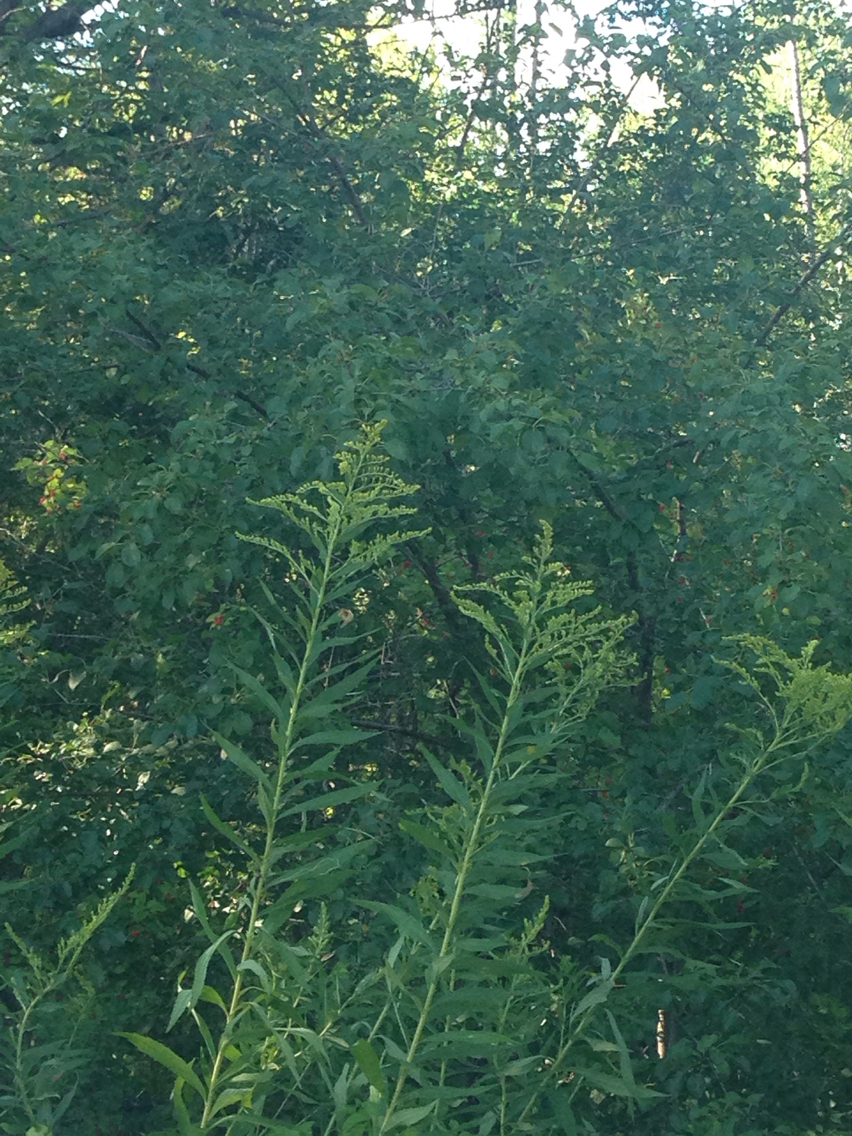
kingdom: Plantae
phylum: Tracheophyta
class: Magnoliopsida
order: Rosales
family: Rhamnaceae
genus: Rhamnus
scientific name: Rhamnus cathartica
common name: Common buckthorn
